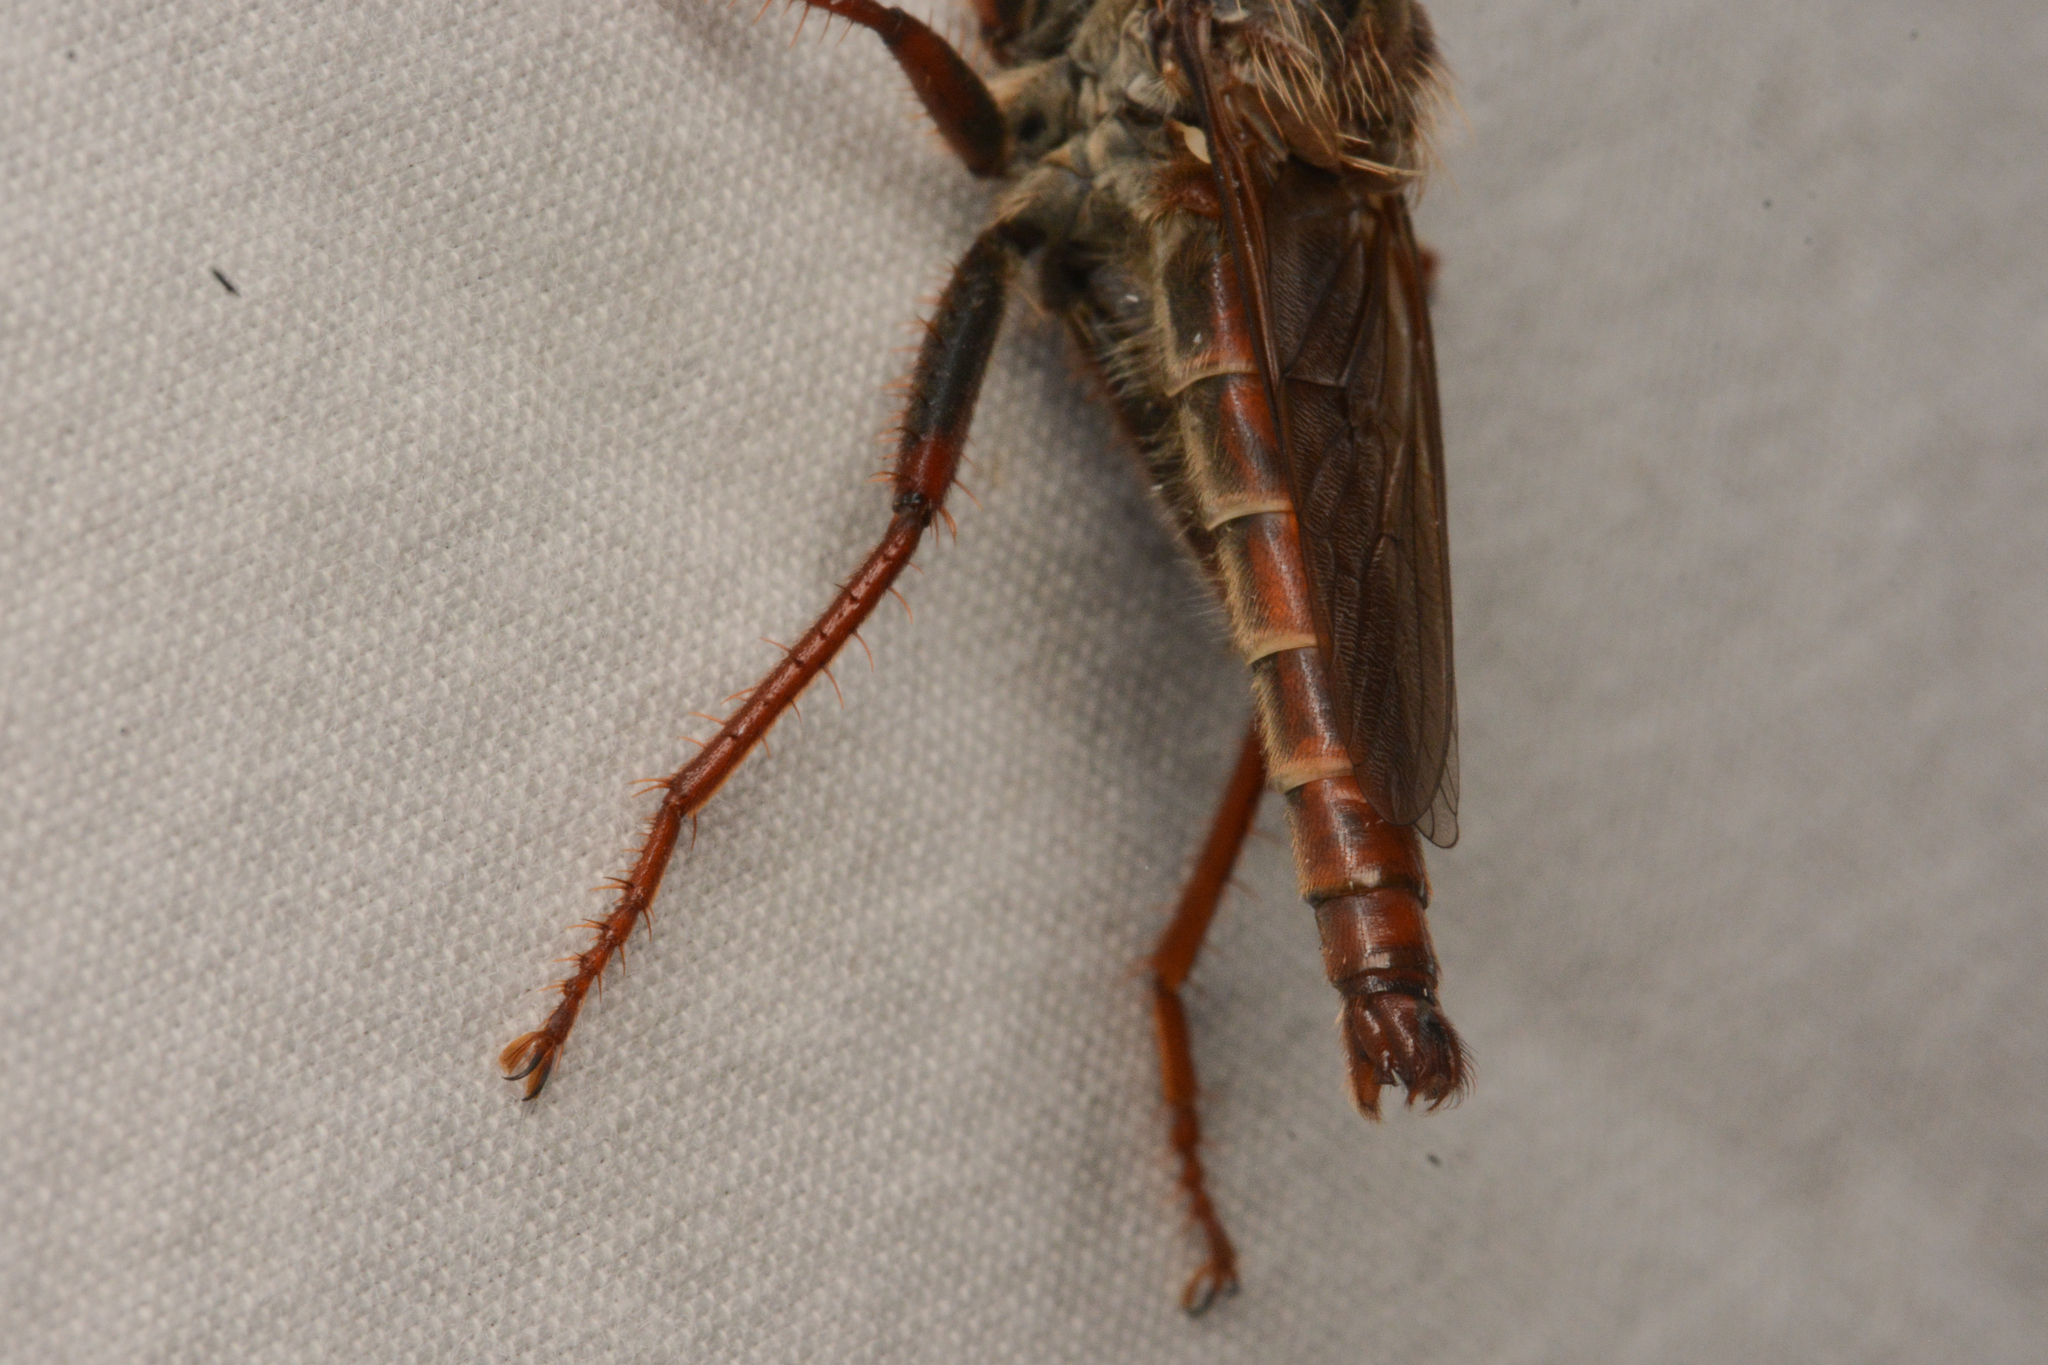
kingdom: Animalia
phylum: Arthropoda
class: Insecta
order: Diptera
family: Asilidae
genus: Stenopogon
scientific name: Stenopogon inquinatus
